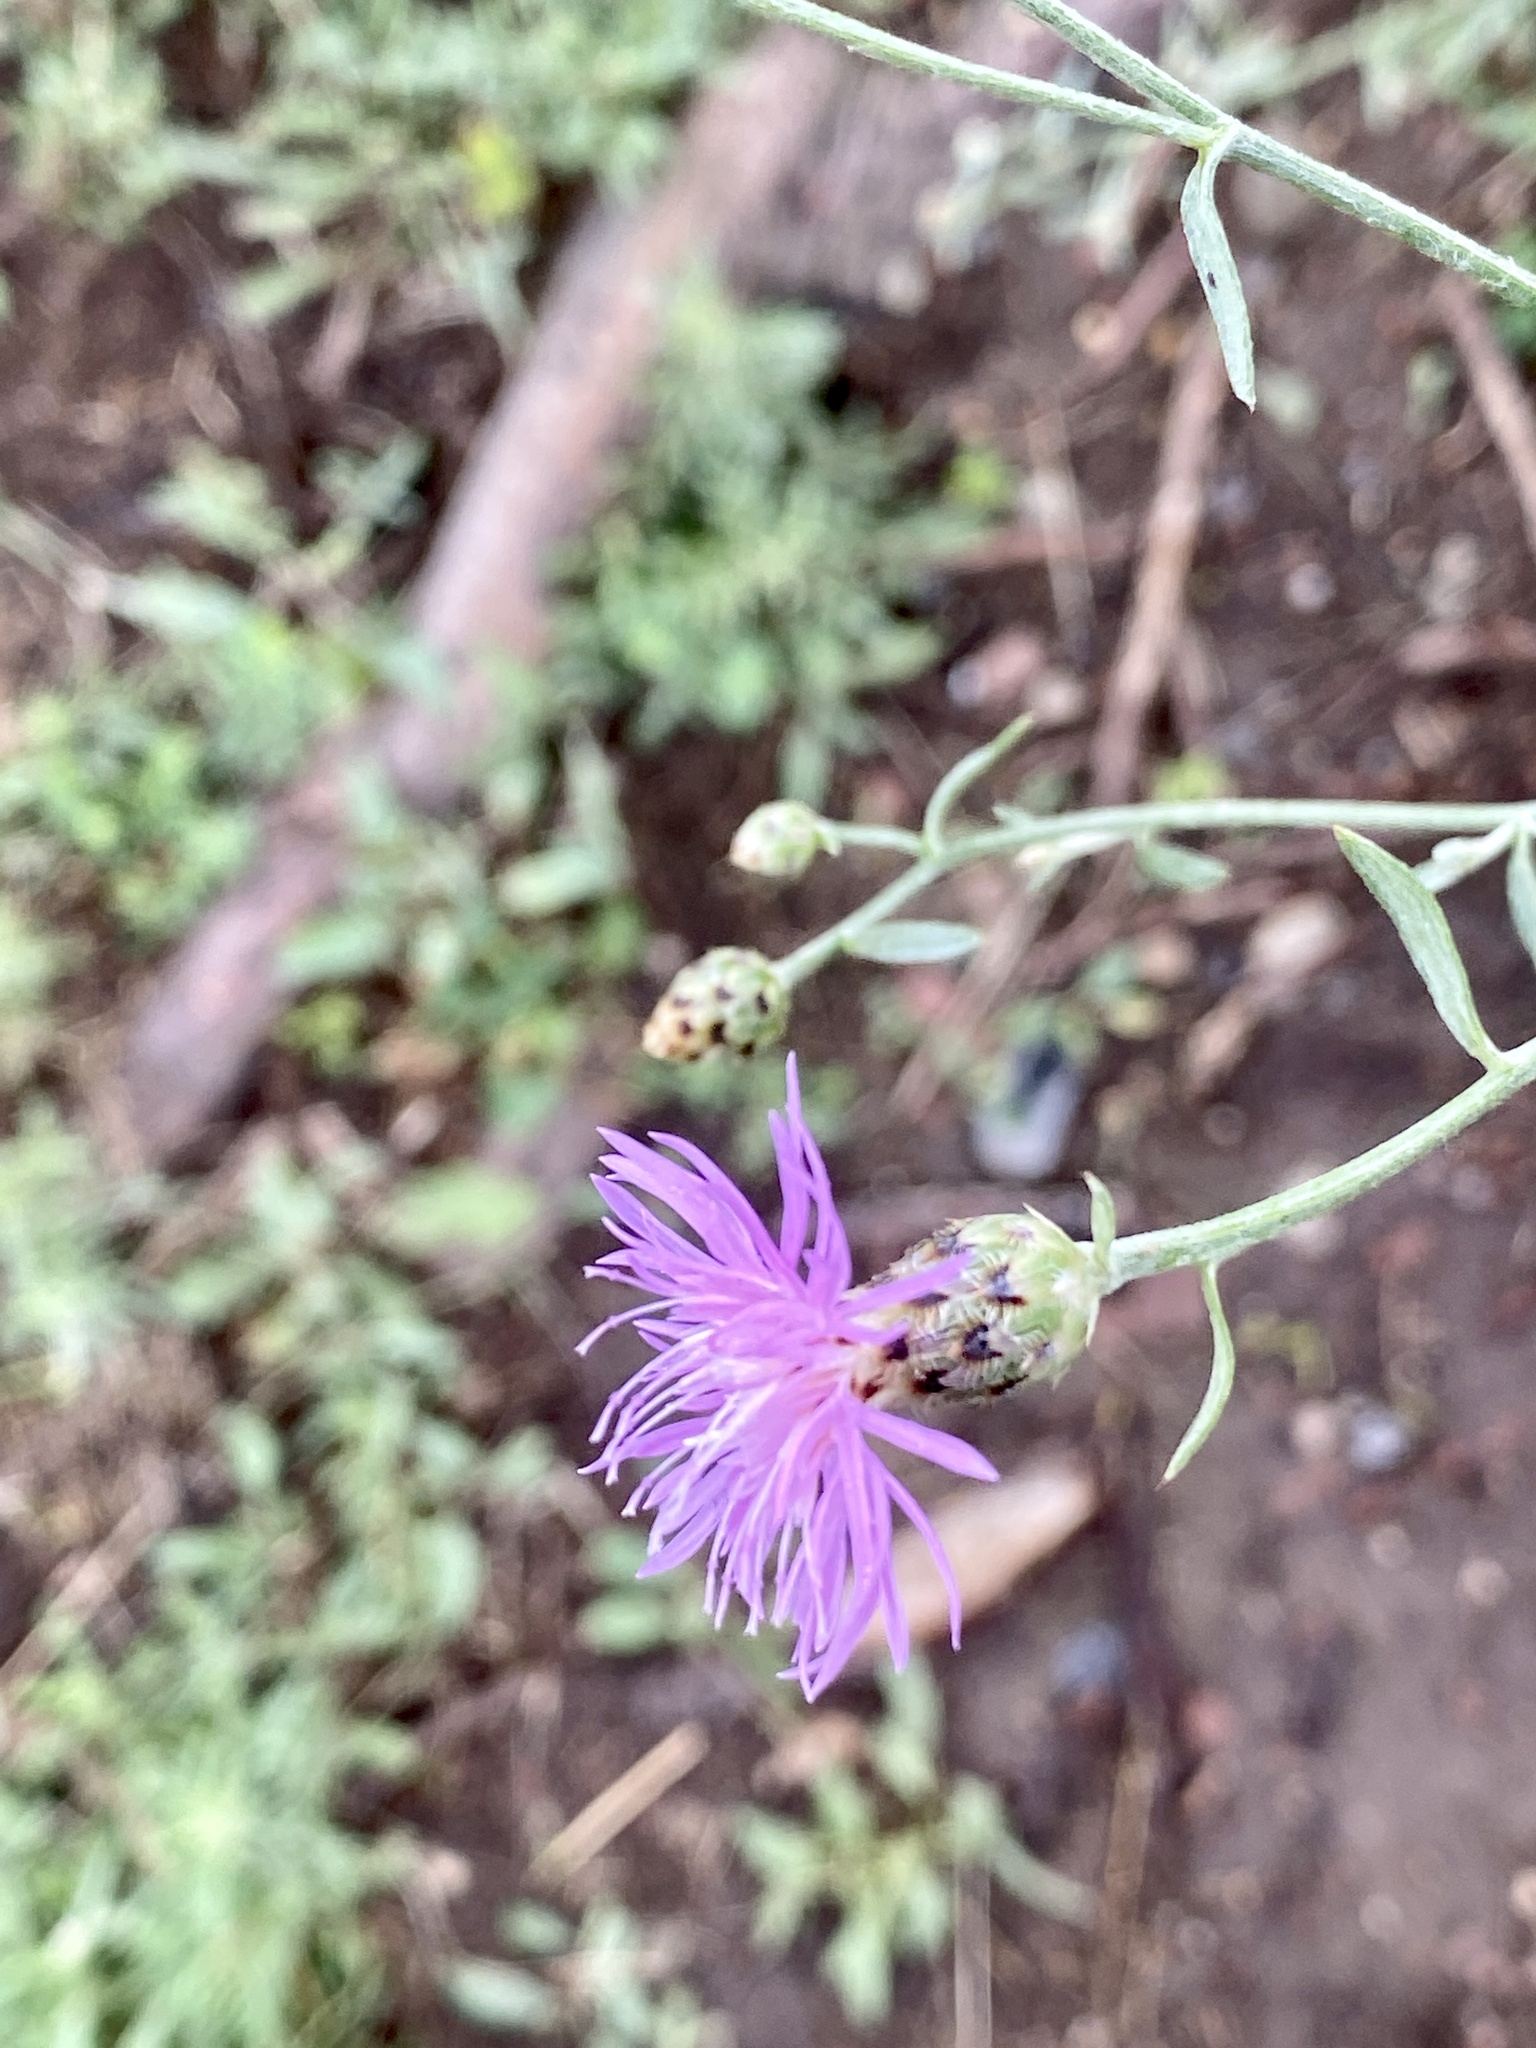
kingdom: Plantae
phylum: Tracheophyta
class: Magnoliopsida
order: Asterales
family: Asteraceae
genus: Centaurea
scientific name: Centaurea stoebe
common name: Spotted knapweed
